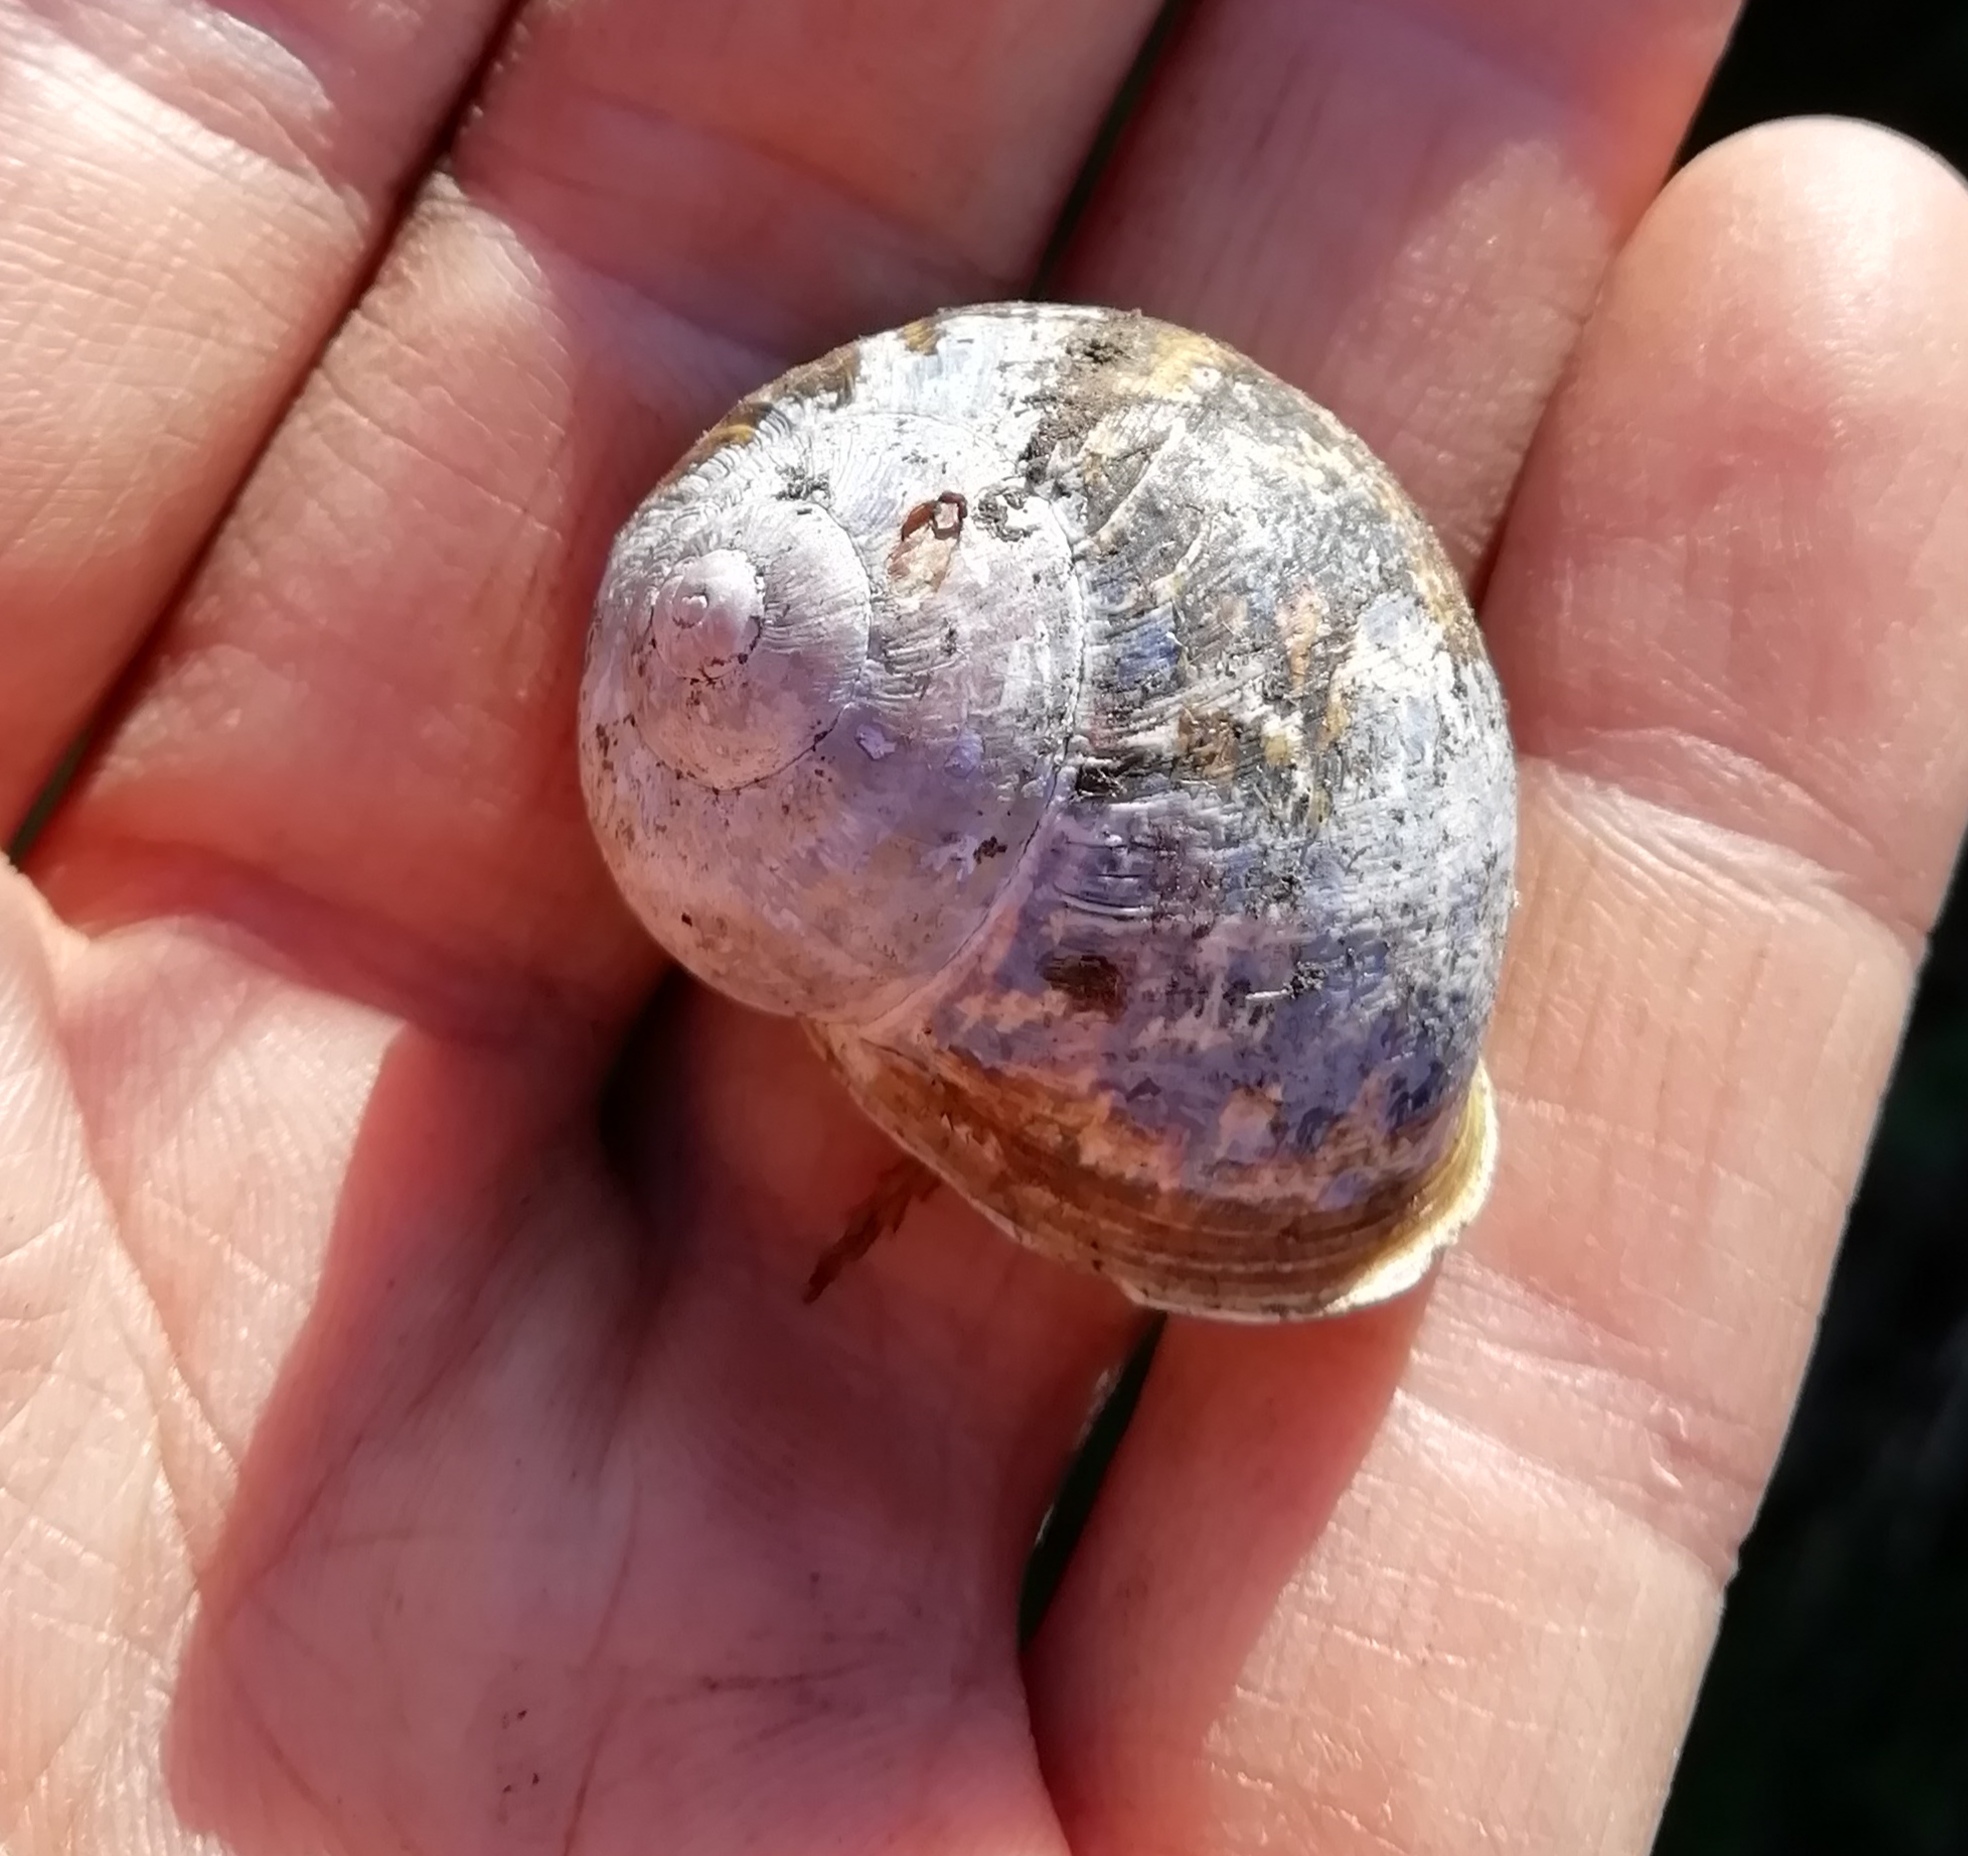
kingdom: Animalia
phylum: Mollusca
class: Gastropoda
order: Stylommatophora
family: Helicidae
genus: Cornu
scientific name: Cornu aspersum
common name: Brown garden snail
